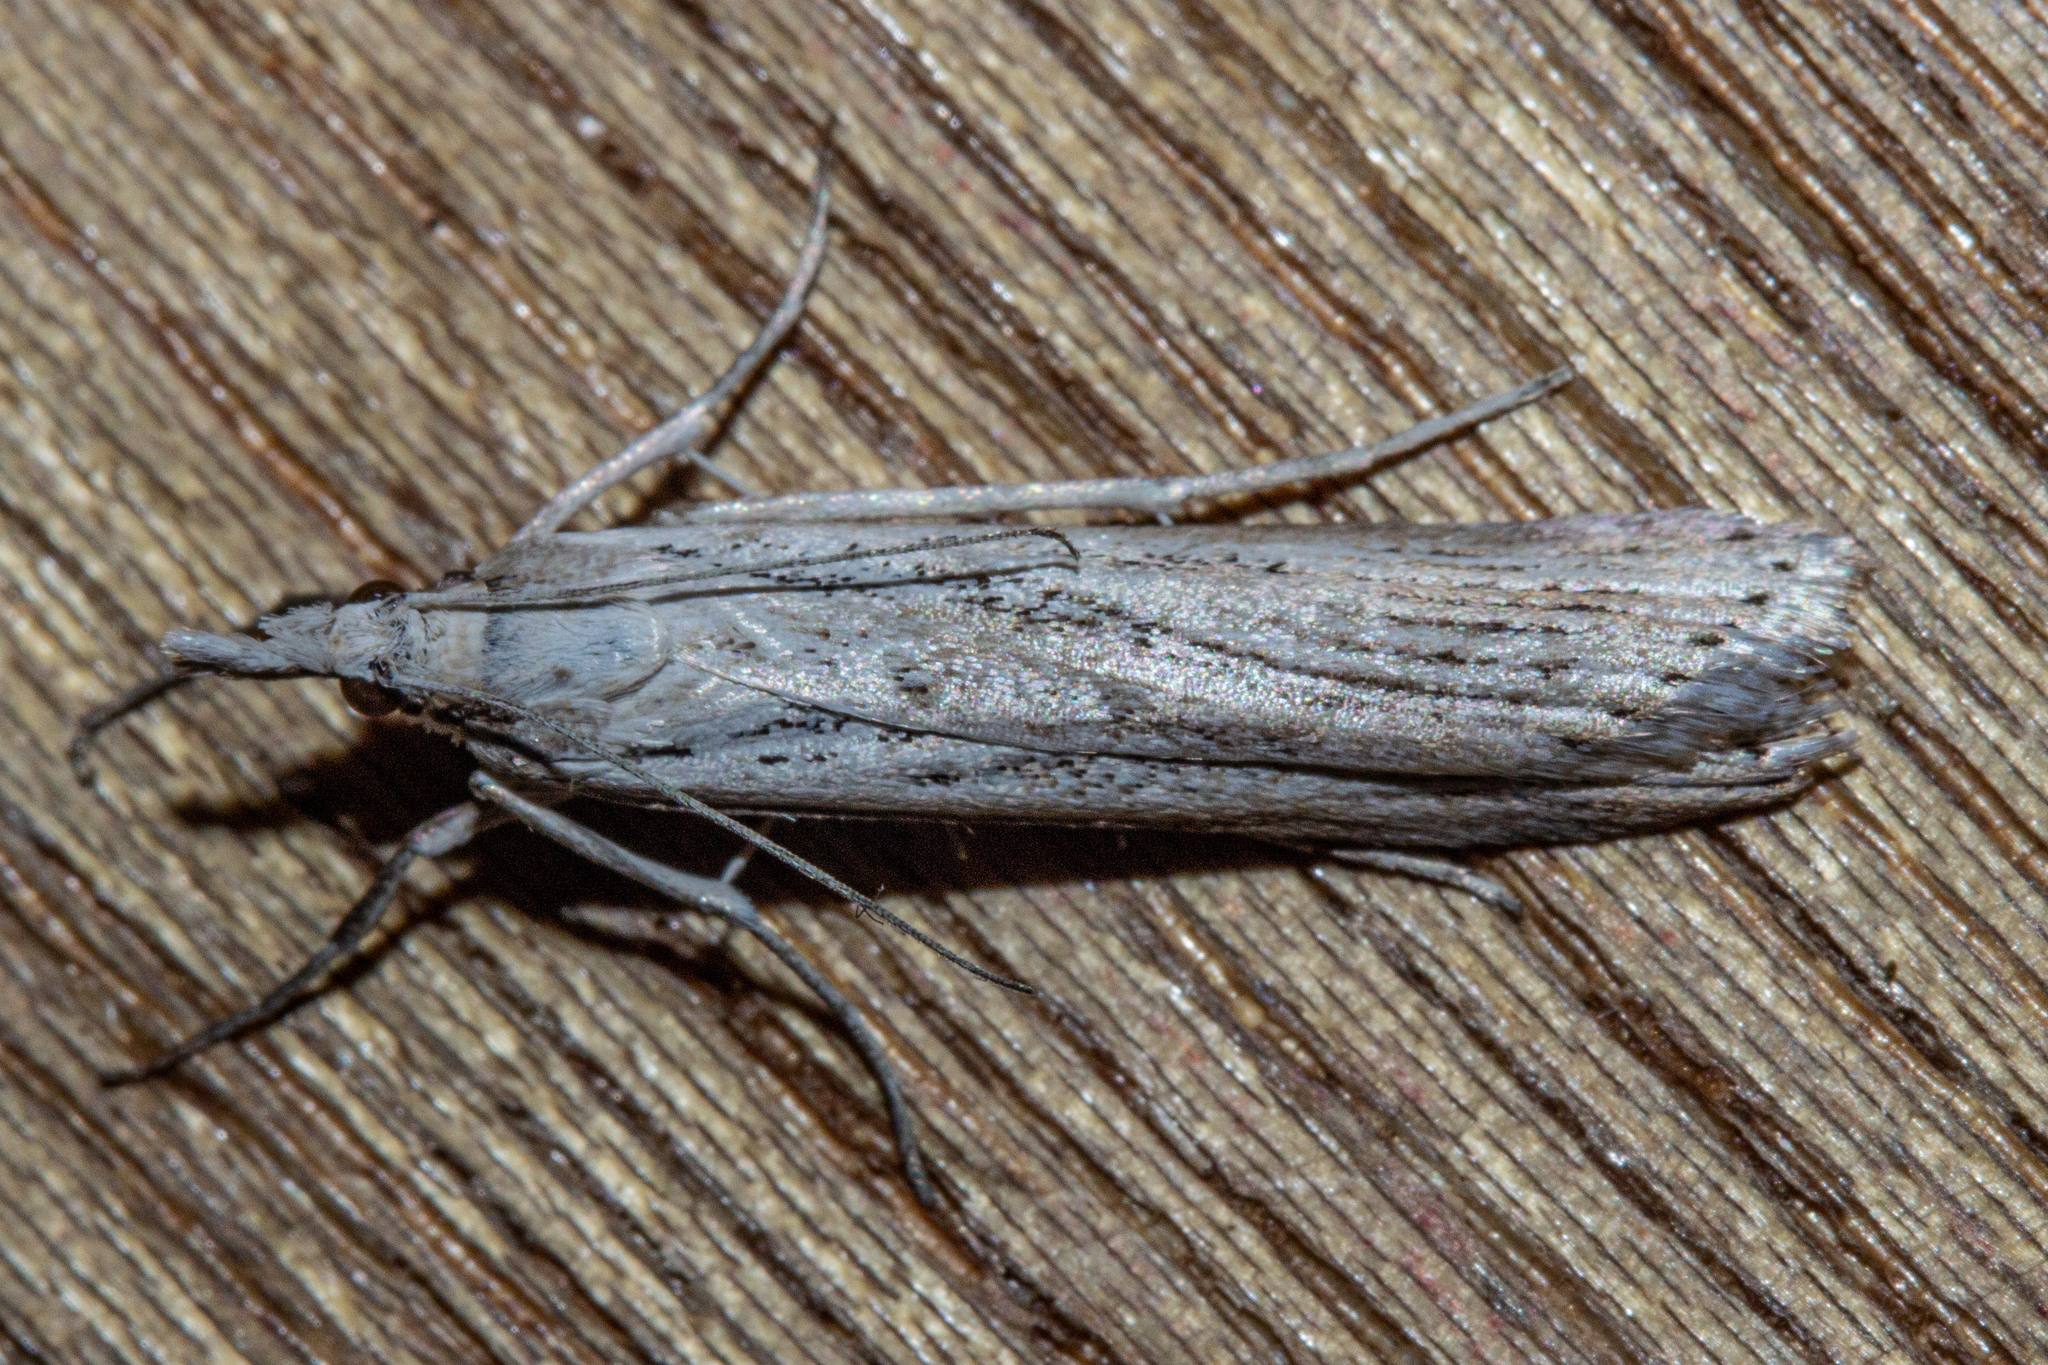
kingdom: Animalia
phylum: Arthropoda
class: Insecta
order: Lepidoptera
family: Crambidae
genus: Eudonia
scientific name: Eudonia deltophora
